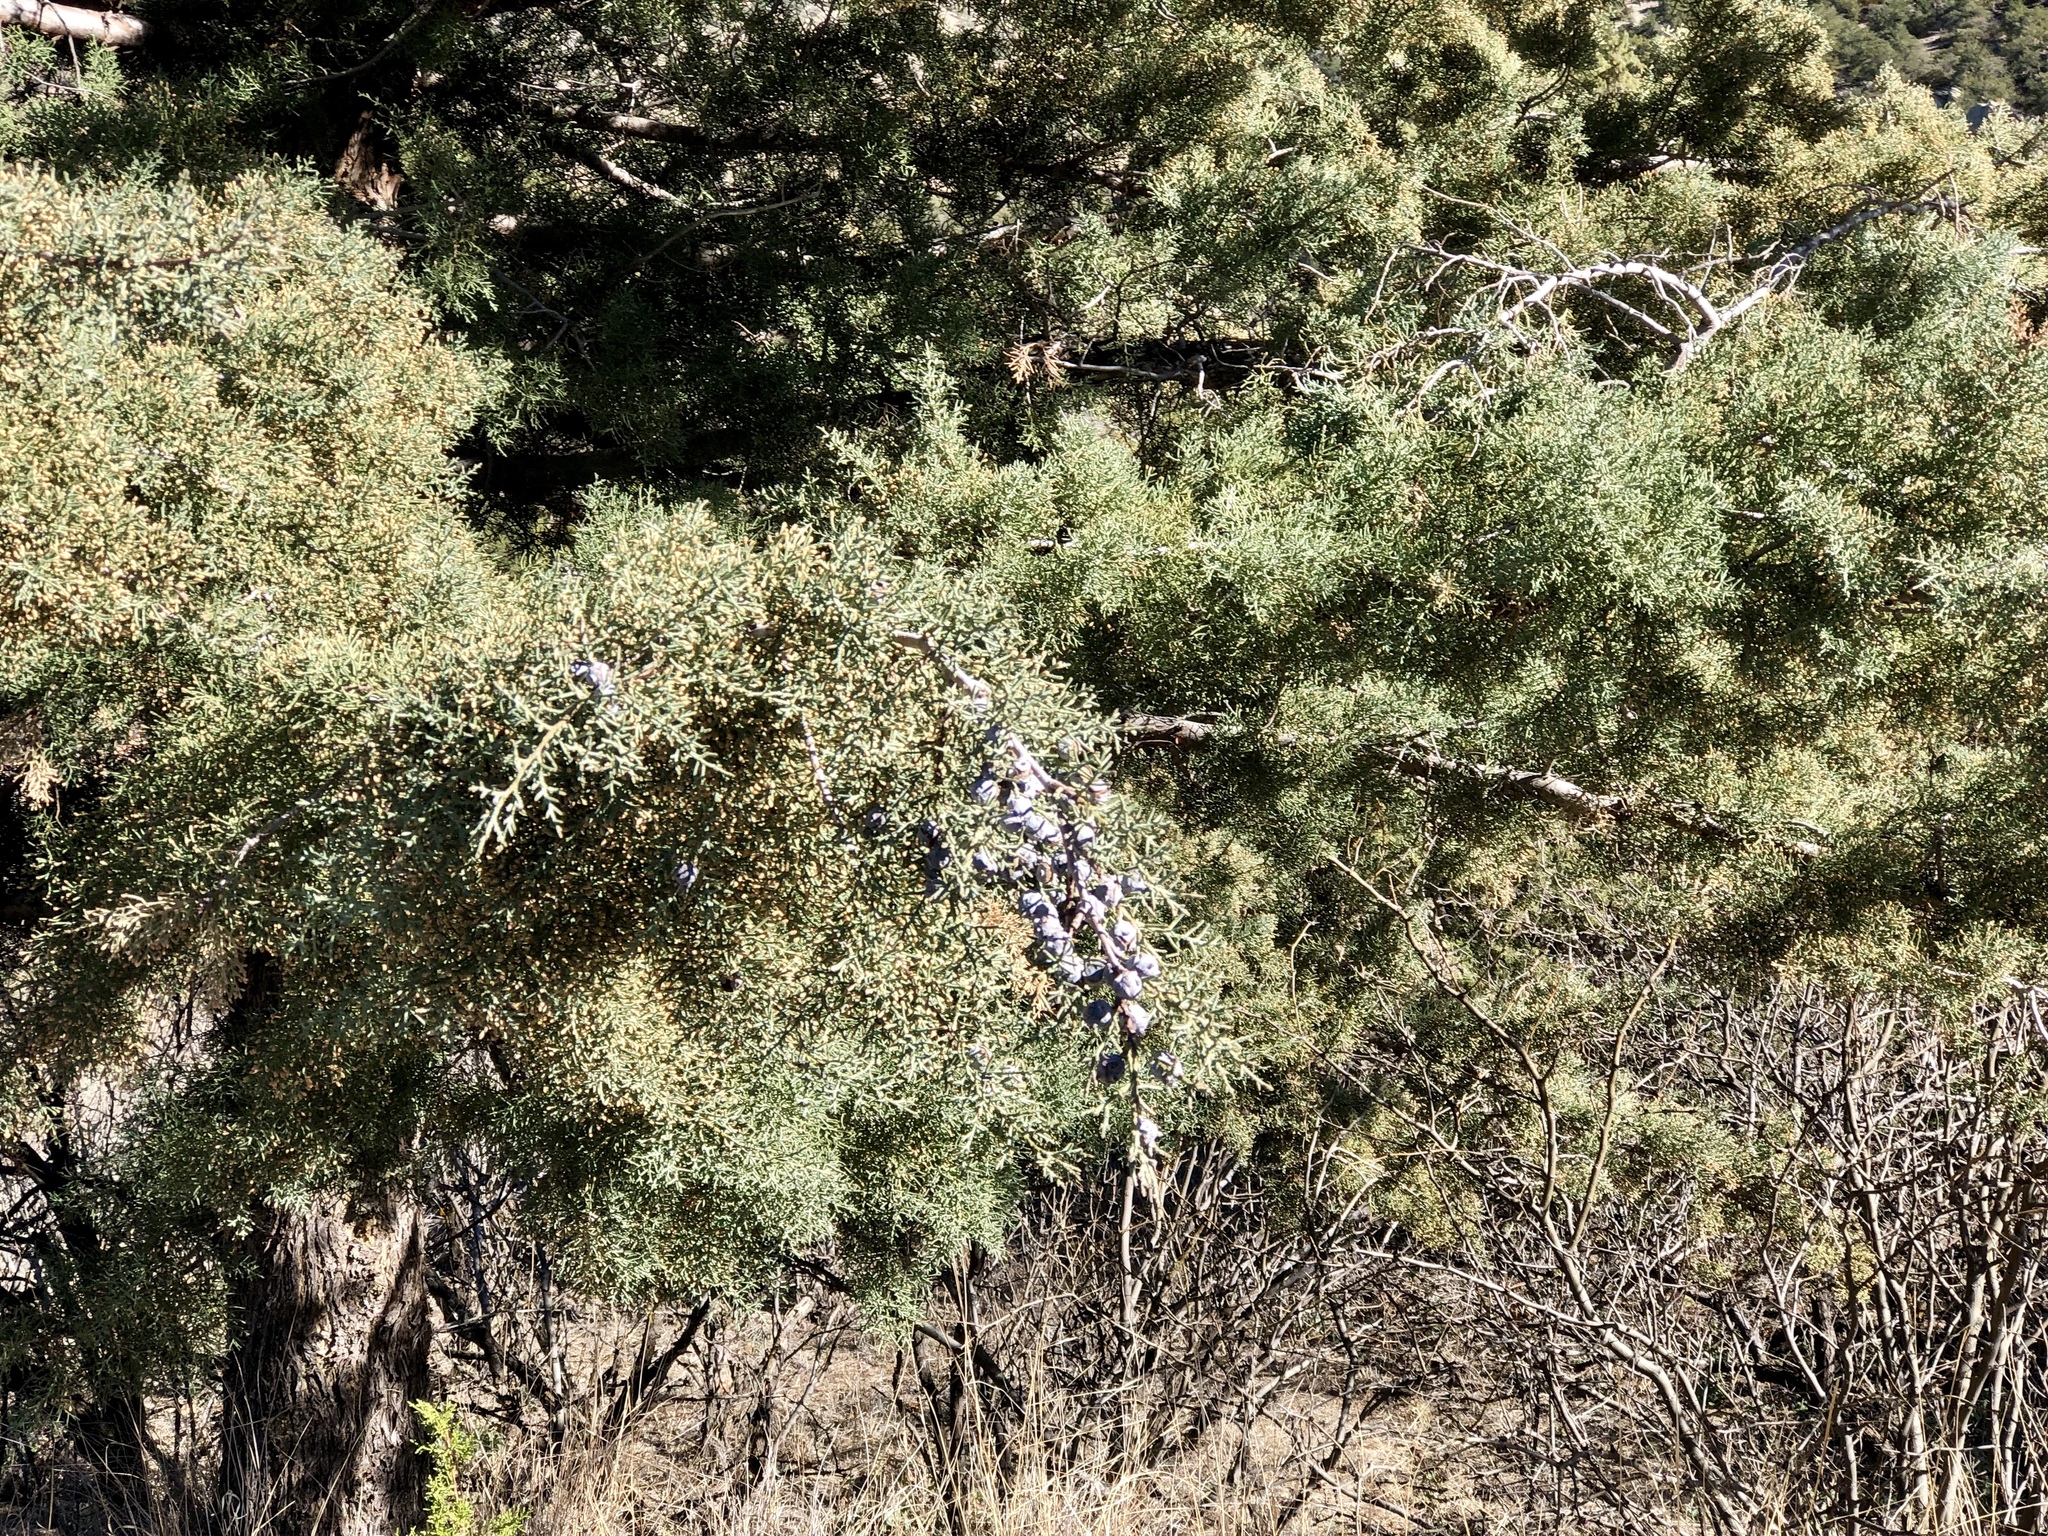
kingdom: Plantae
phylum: Tracheophyta
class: Pinopsida
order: Pinales
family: Cupressaceae
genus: Cupressus
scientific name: Cupressus arizonica
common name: Arizona cypress
